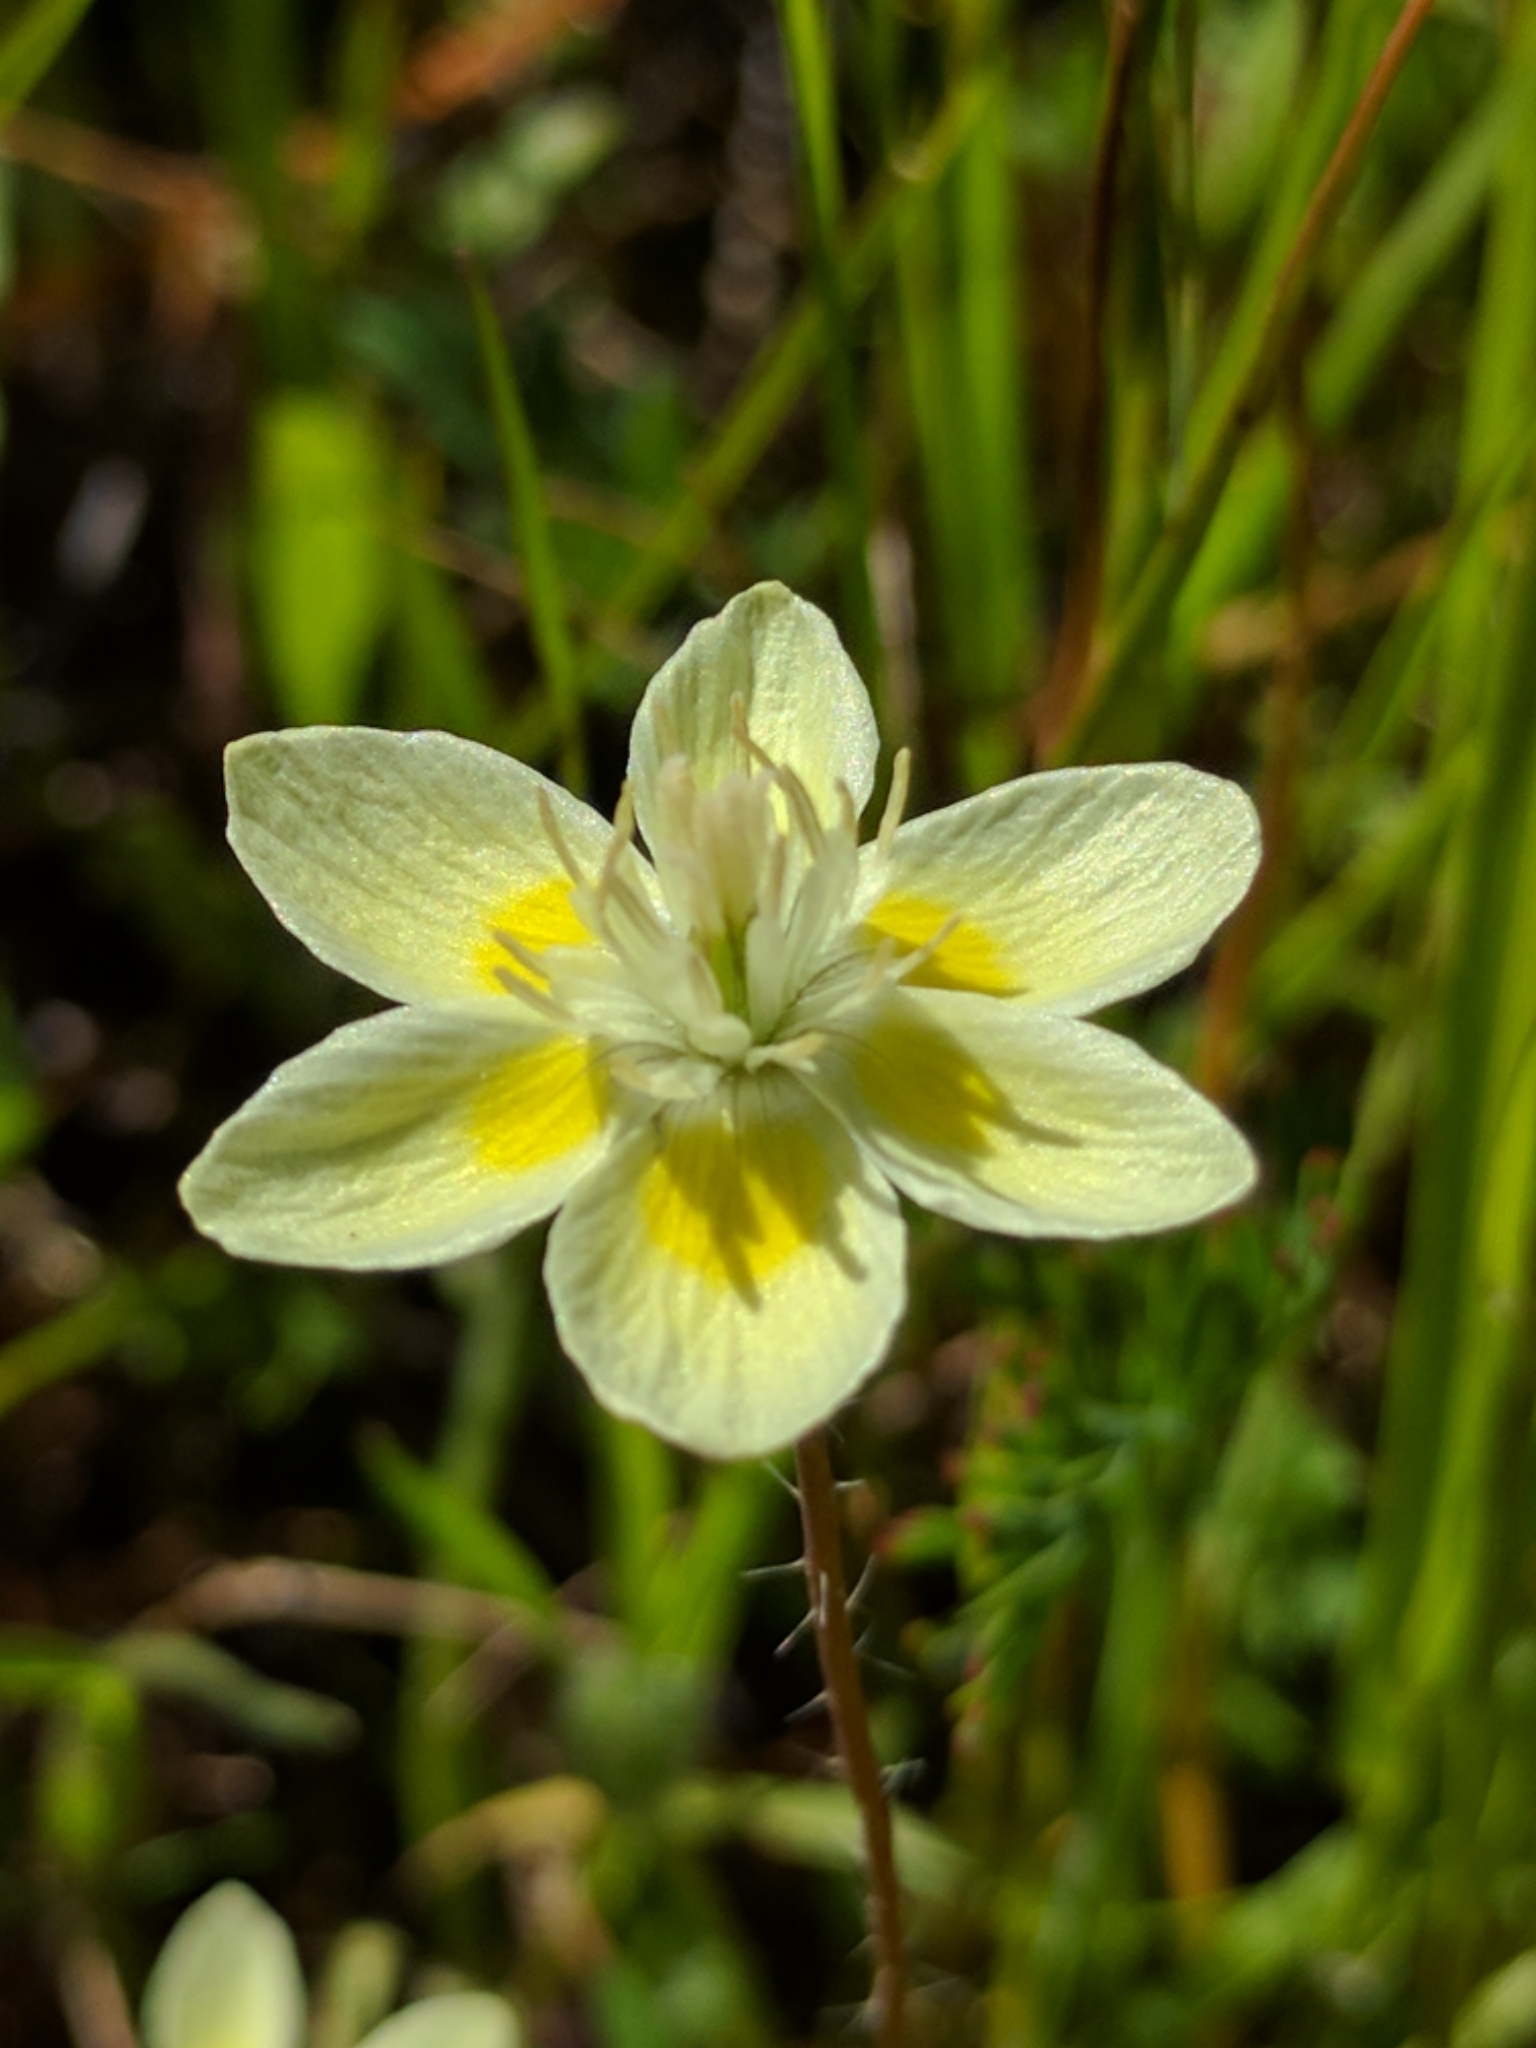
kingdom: Plantae
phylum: Tracheophyta
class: Magnoliopsida
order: Ranunculales
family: Papaveraceae
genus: Platystemon
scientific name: Platystemon californicus
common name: Cream-cups
